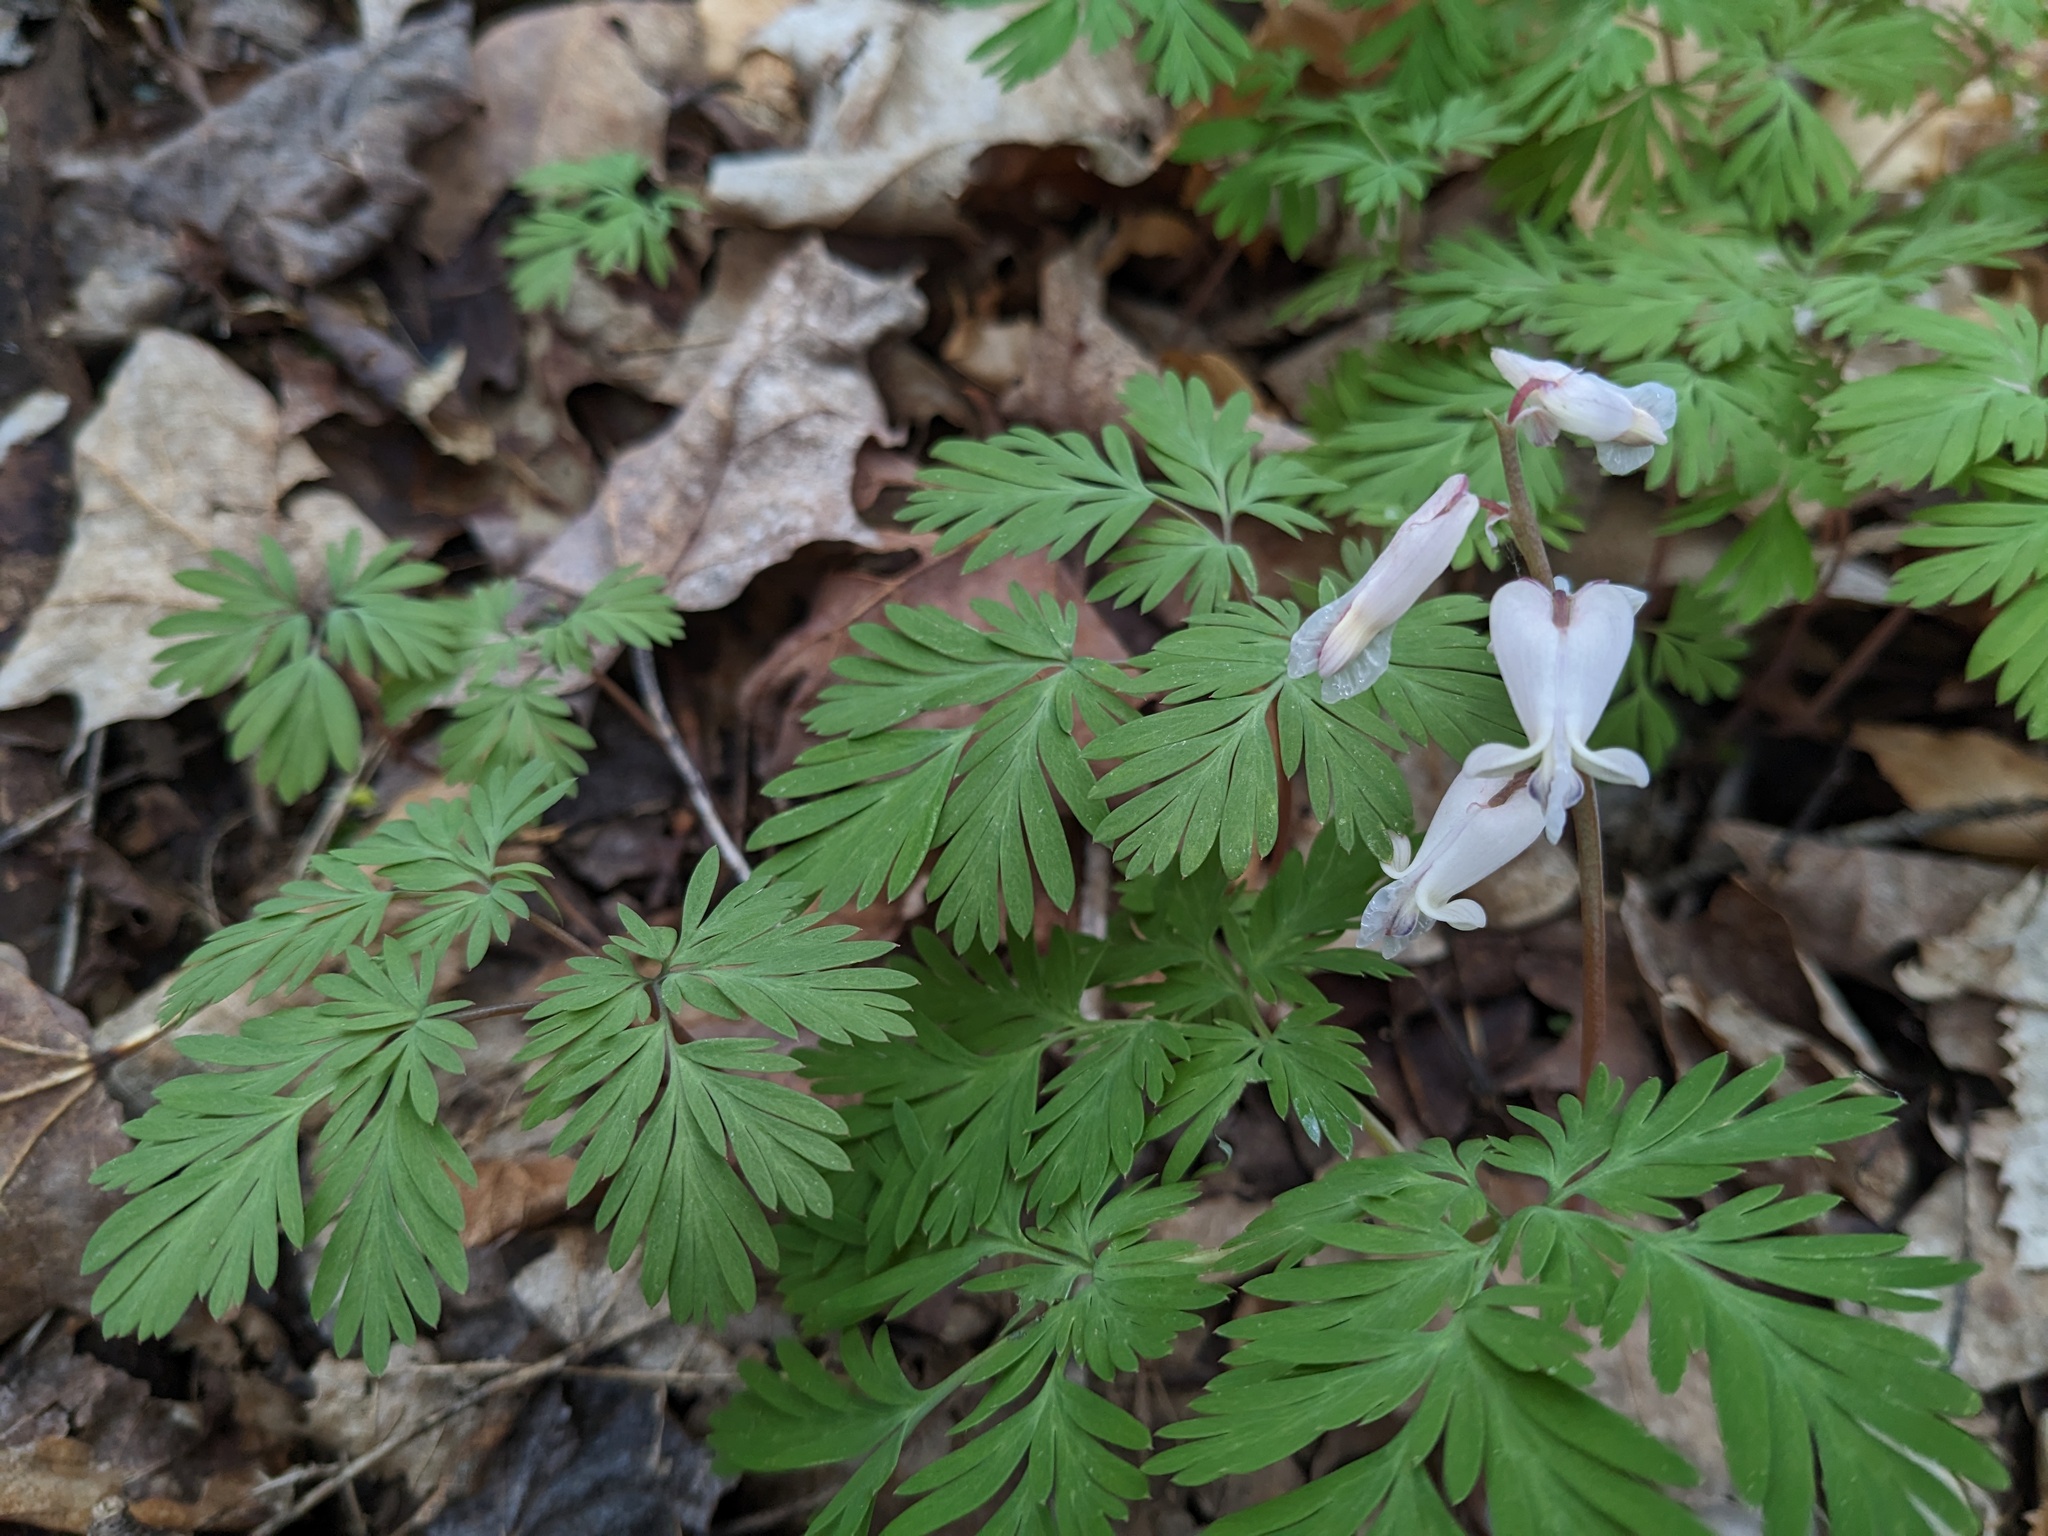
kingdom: Plantae
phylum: Tracheophyta
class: Magnoliopsida
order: Ranunculales
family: Papaveraceae
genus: Dicentra
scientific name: Dicentra canadensis
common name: Squirrel-corn
